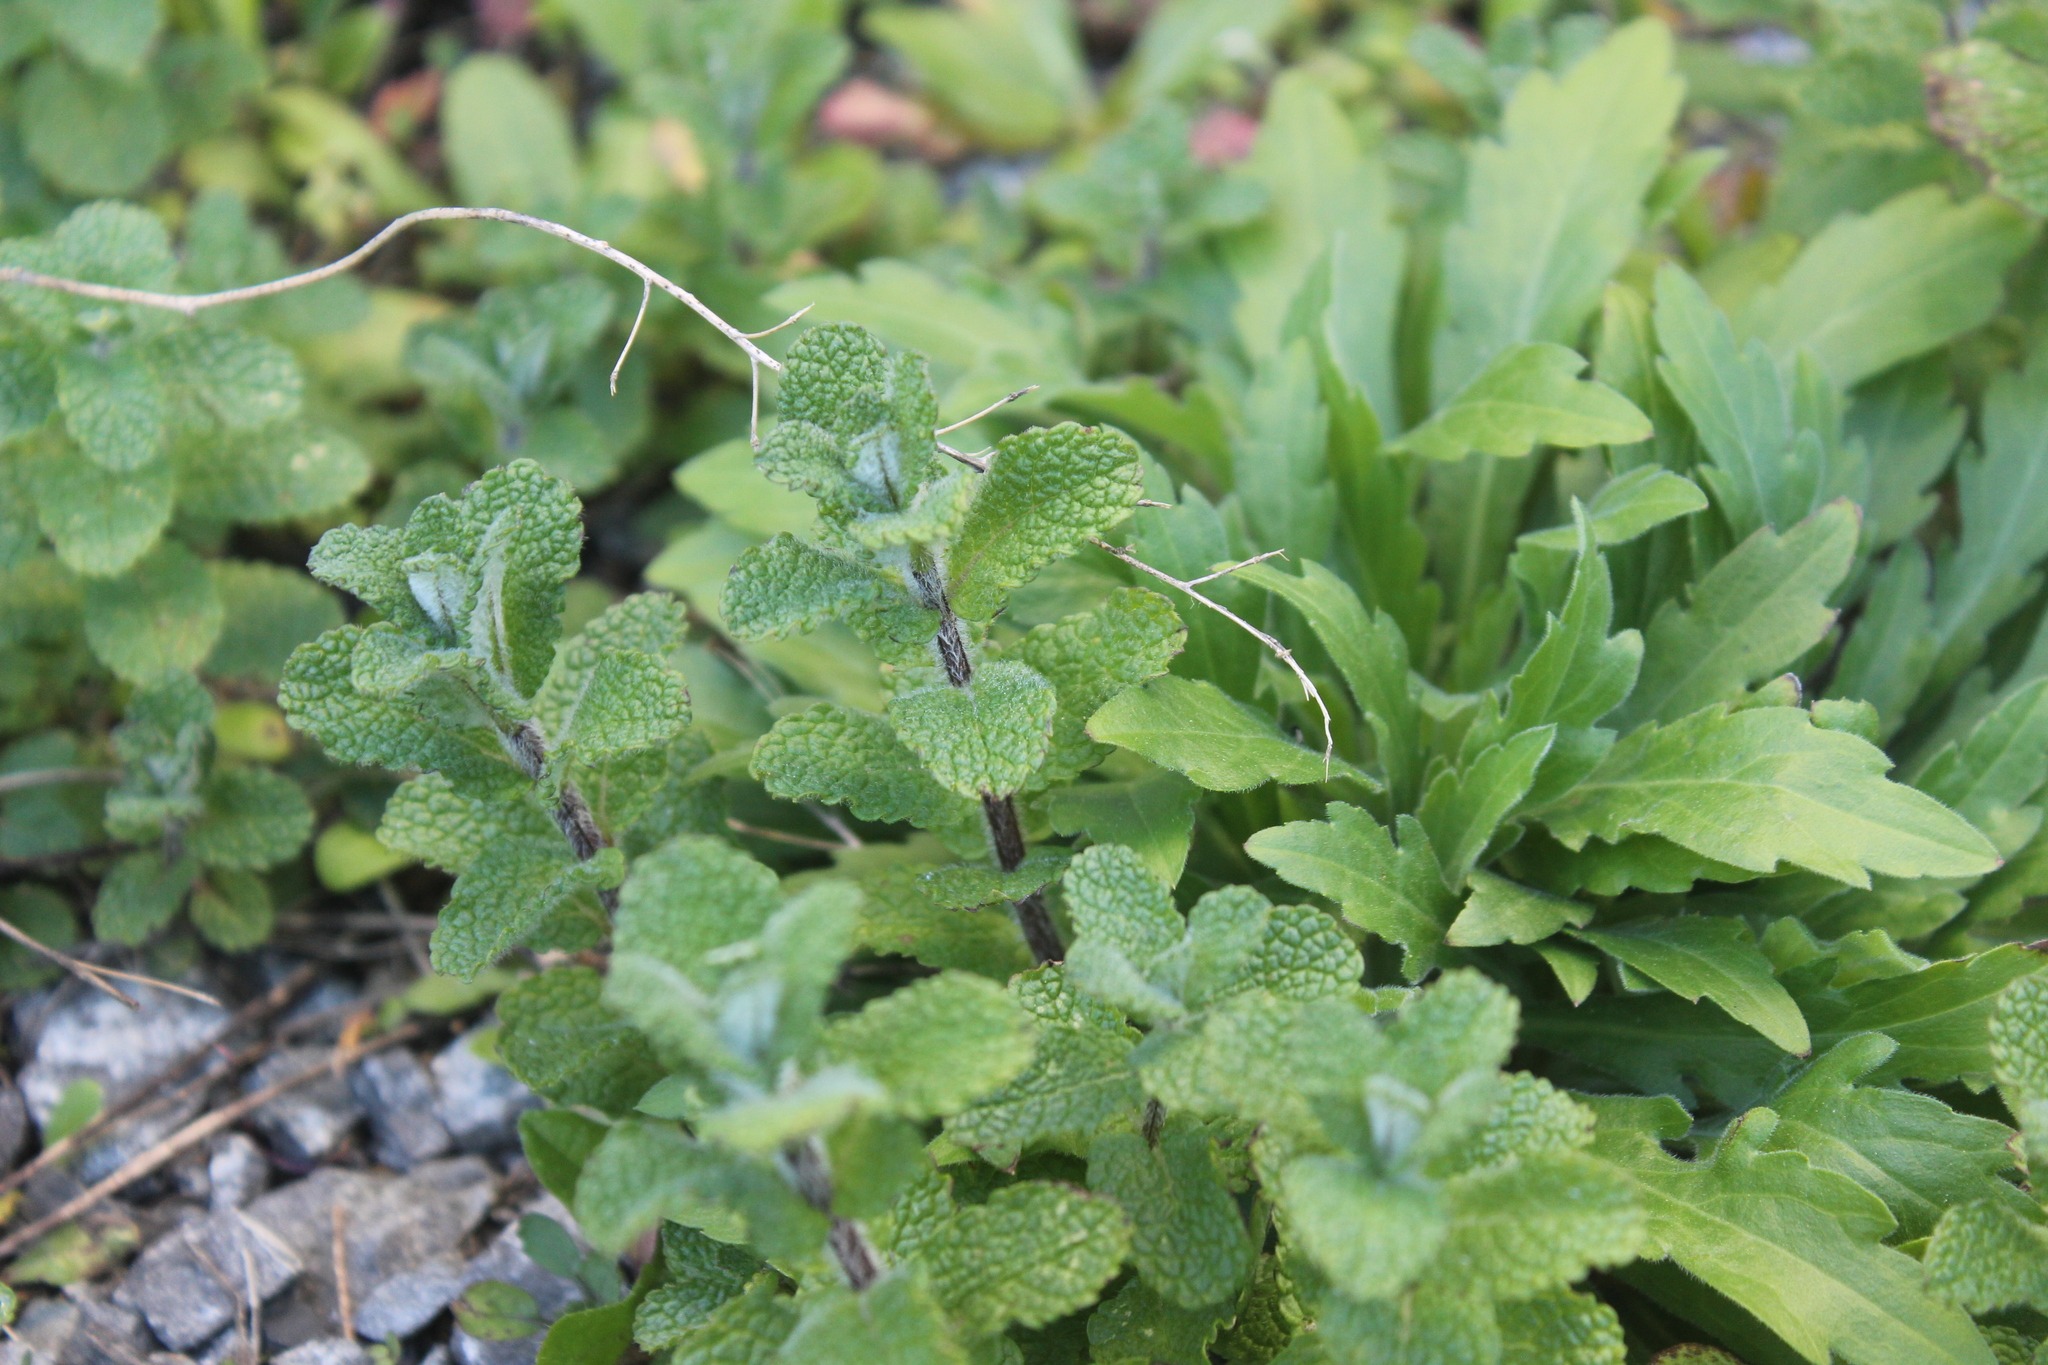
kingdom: Plantae
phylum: Tracheophyta
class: Magnoliopsida
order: Lamiales
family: Lamiaceae
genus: Mentha
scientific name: Mentha suaveolens
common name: Apple mint
